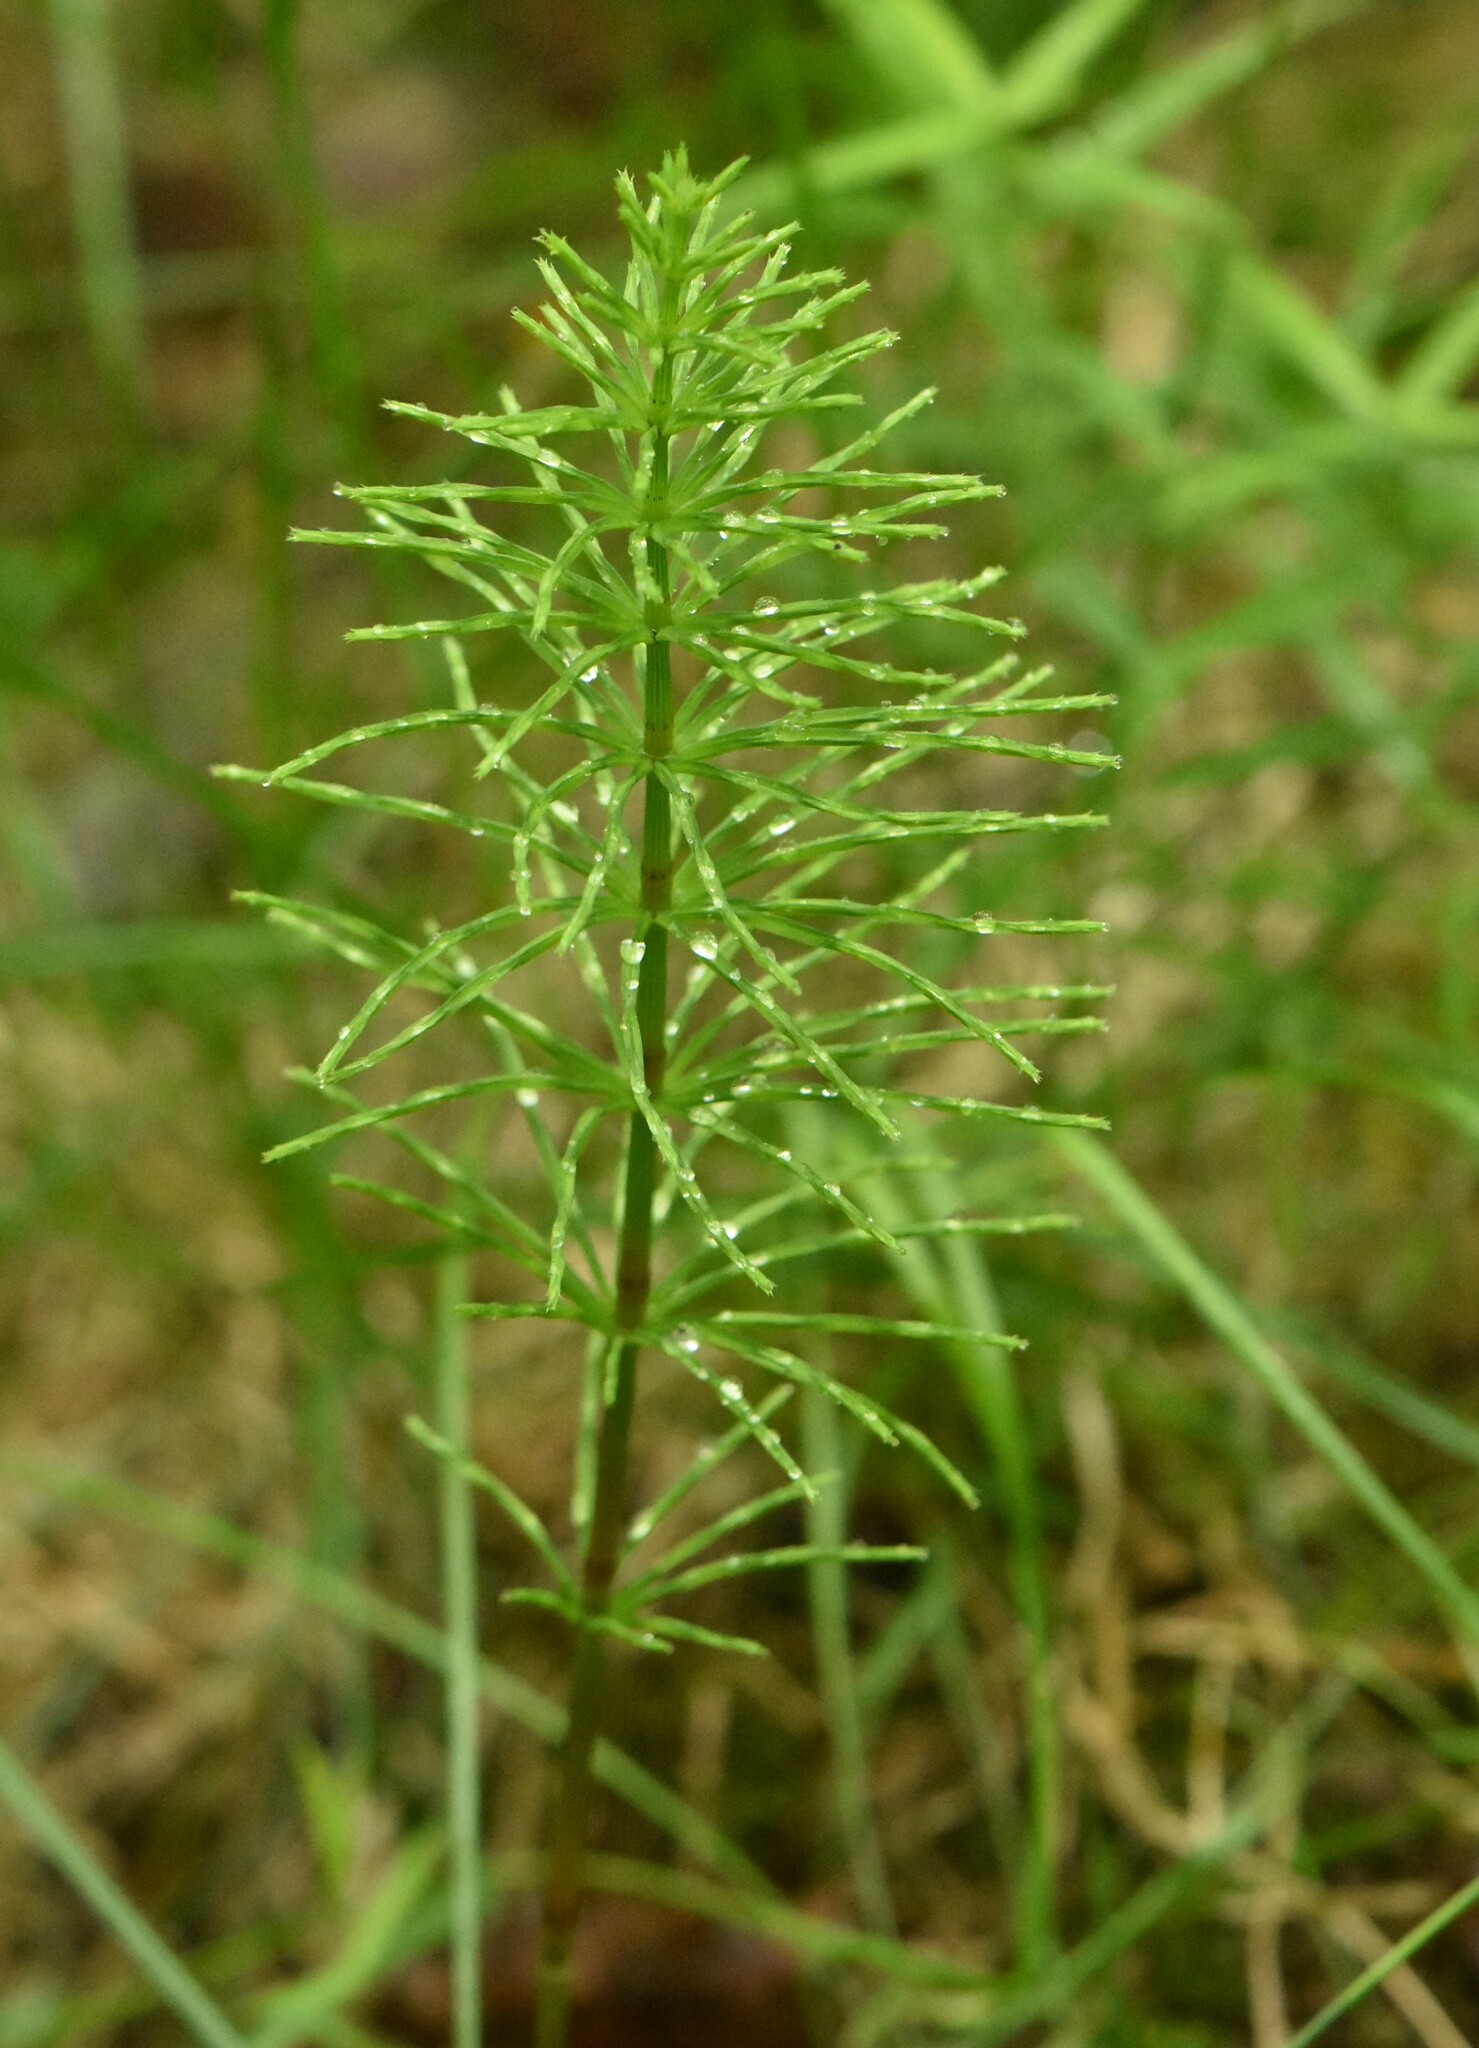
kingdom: Plantae
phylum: Tracheophyta
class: Polypodiopsida
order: Equisetales
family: Equisetaceae
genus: Equisetum
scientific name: Equisetum arvense
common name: Field horsetail
